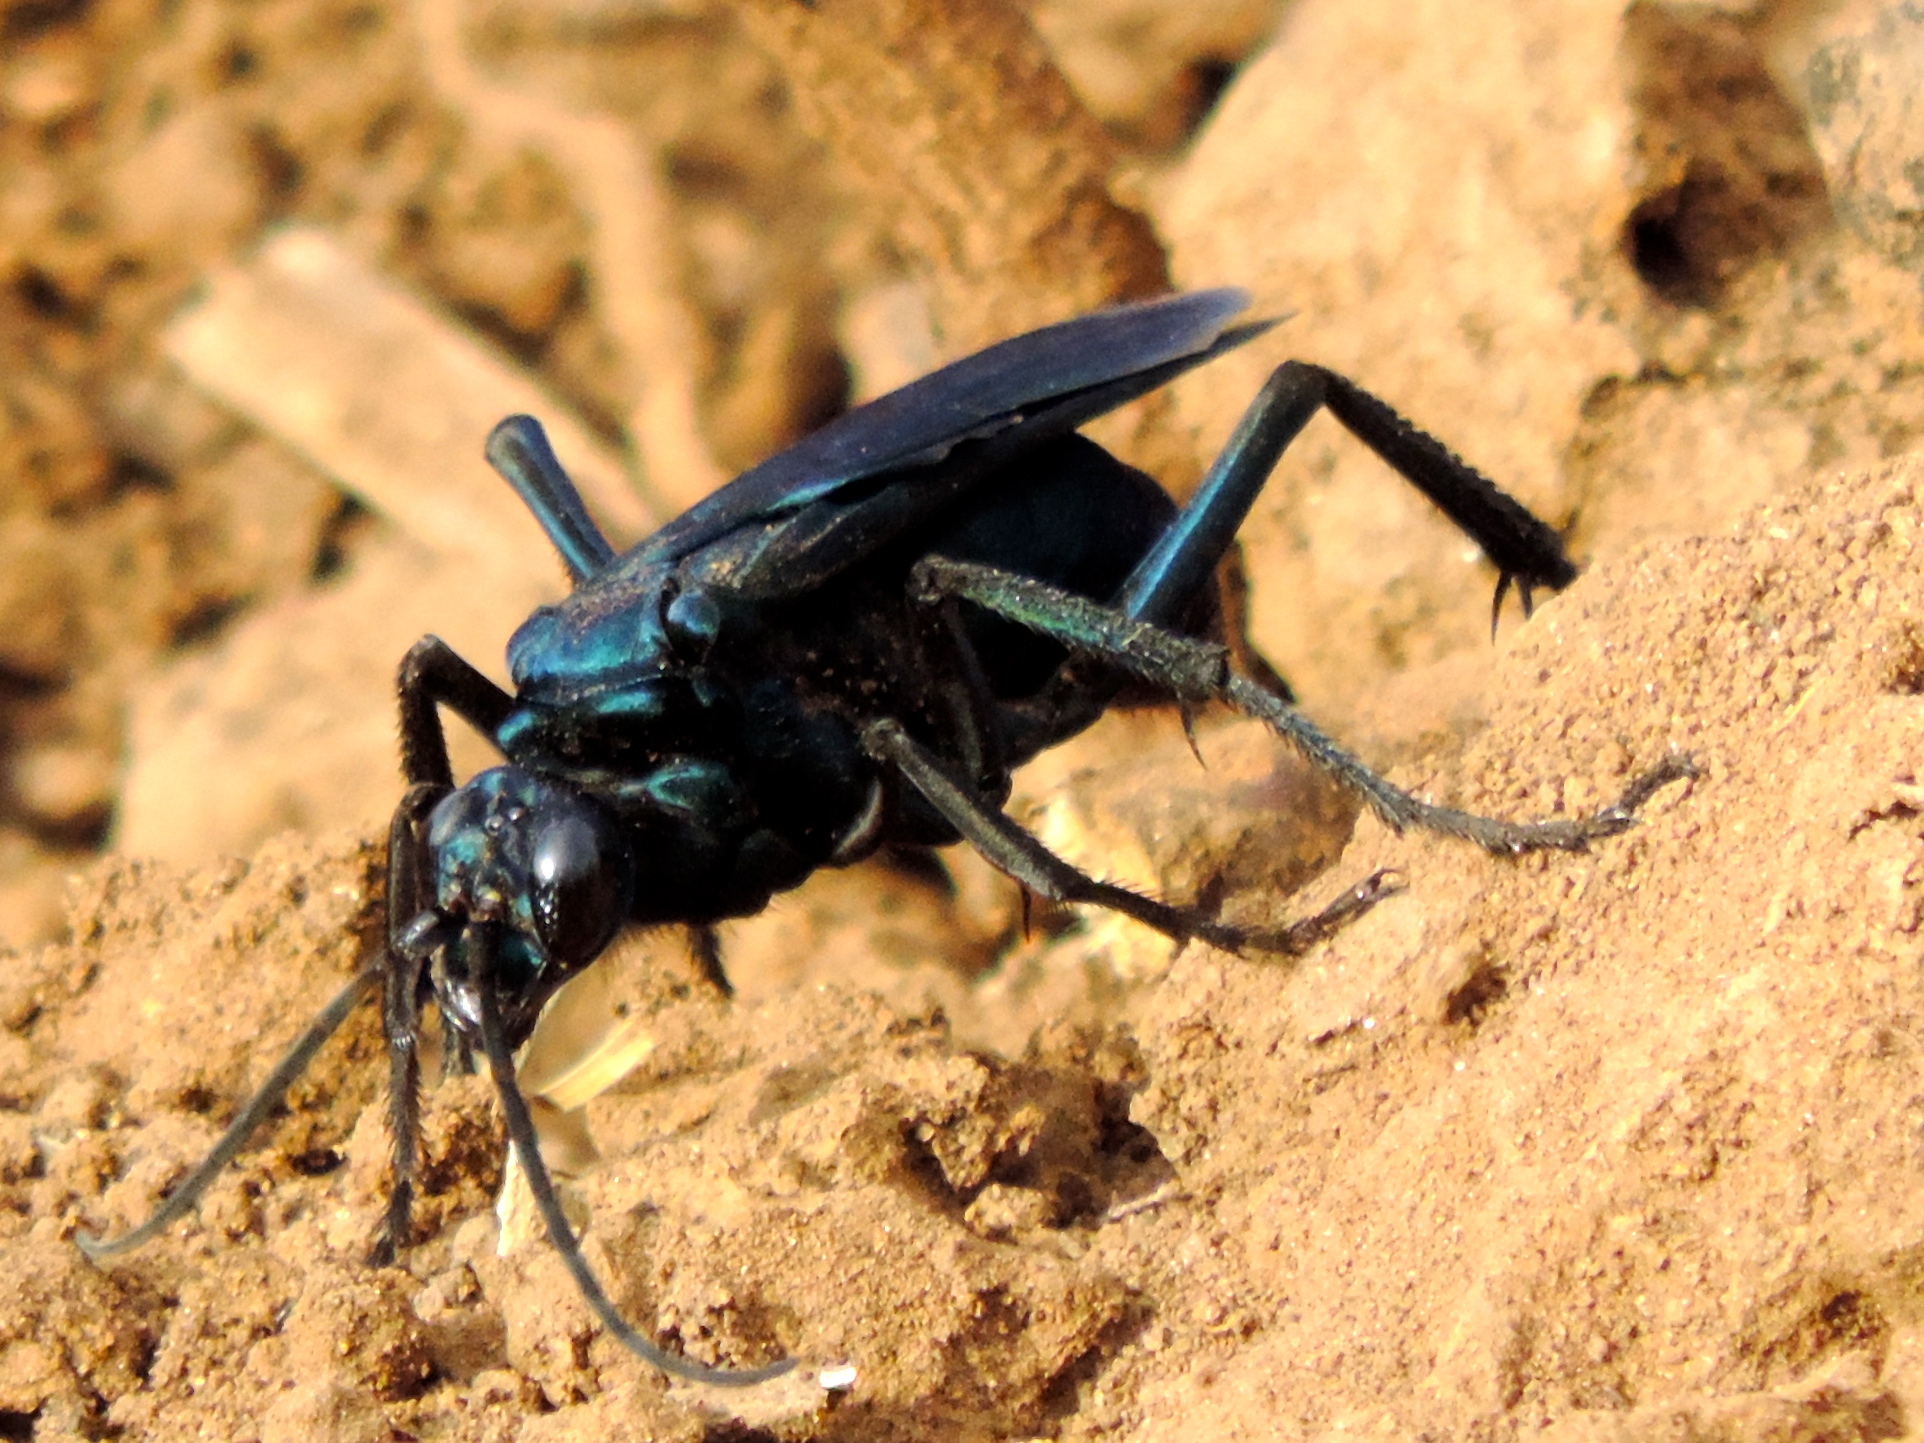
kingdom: Animalia
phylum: Arthropoda
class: Insecta
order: Hymenoptera
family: Pompilidae
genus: Pepsis
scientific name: Pepsis mexicana
